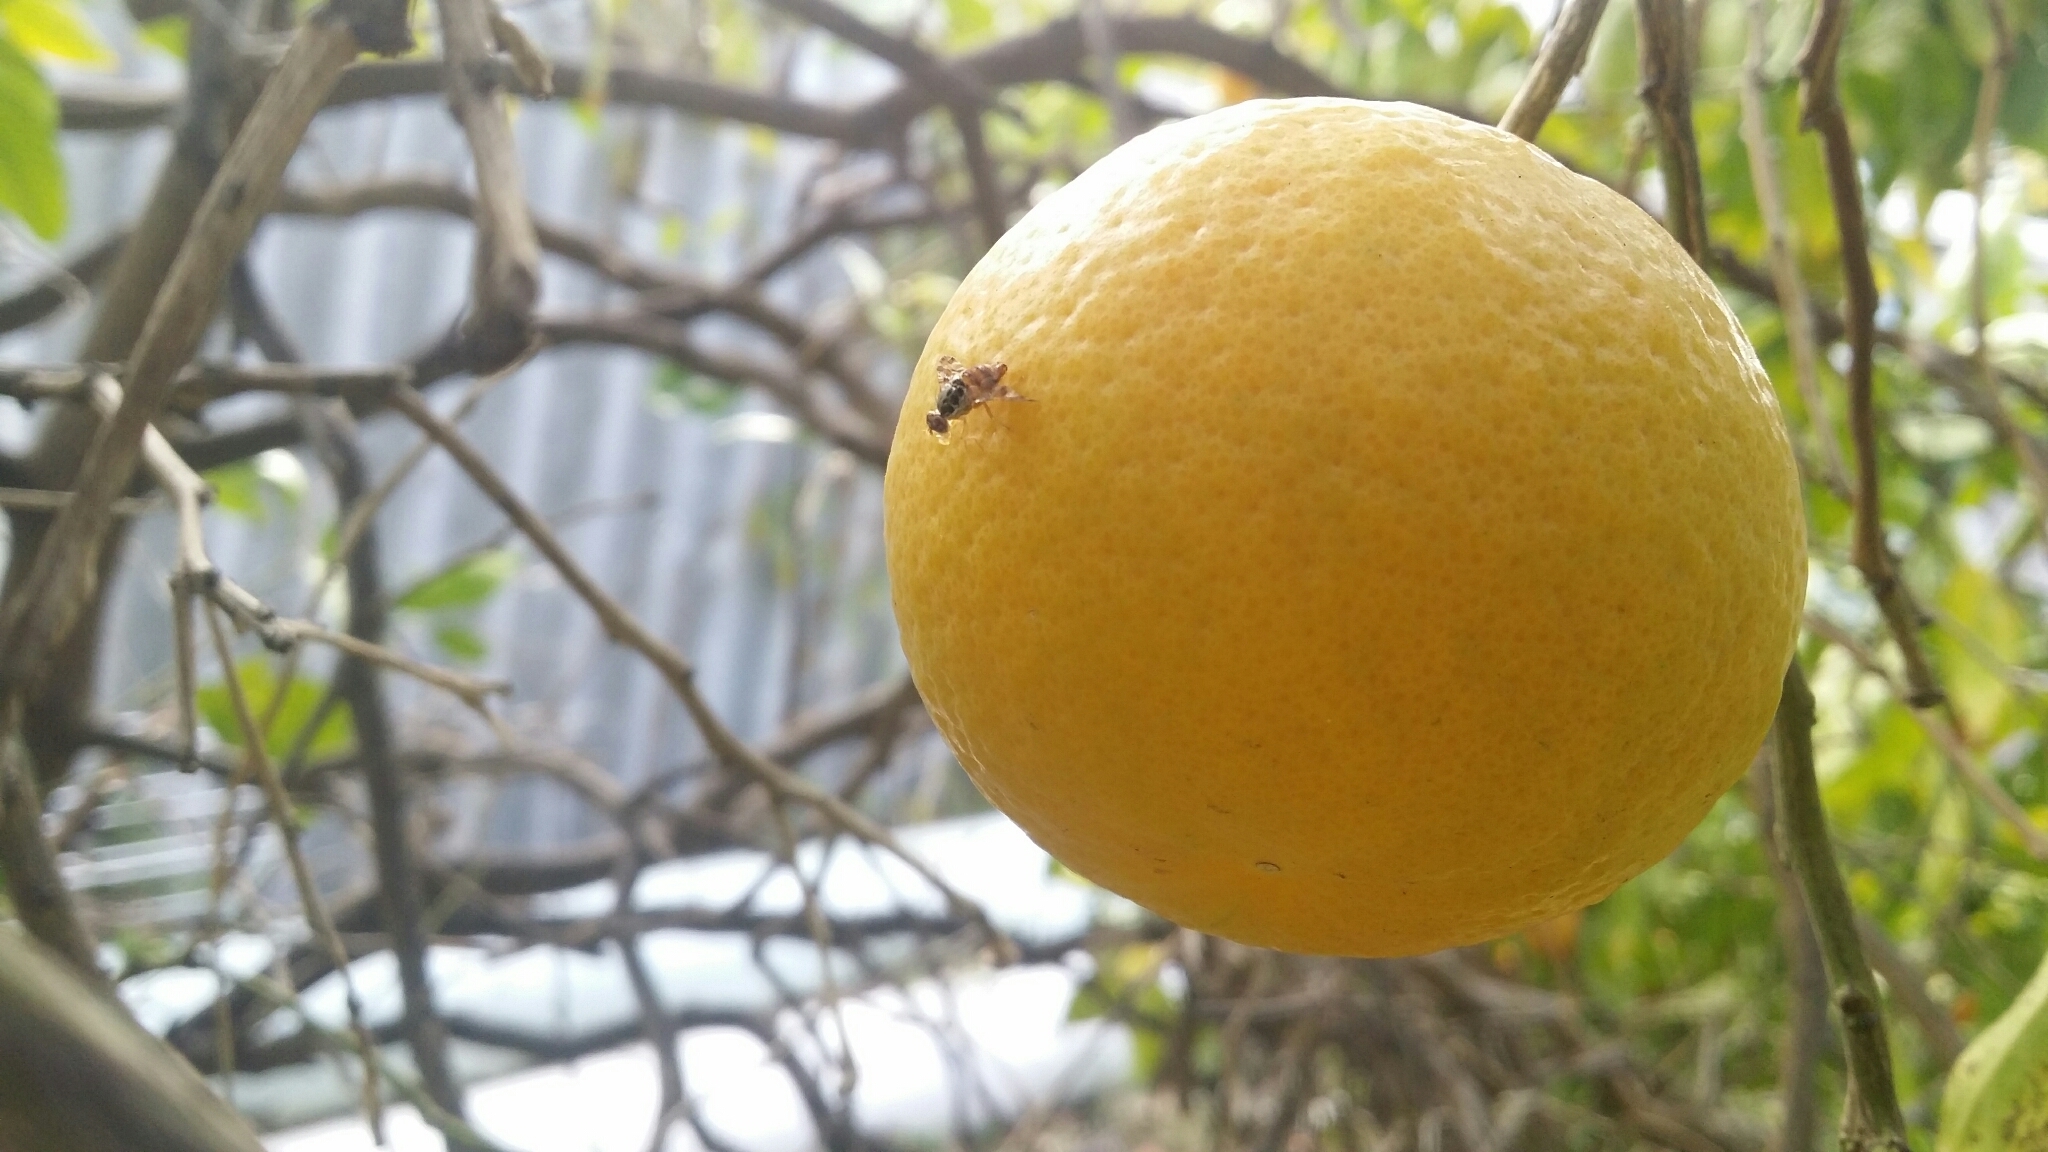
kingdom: Animalia
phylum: Arthropoda
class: Insecta
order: Diptera
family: Tephritidae
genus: Ceratitis
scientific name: Ceratitis capitata
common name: Mediterranean fruit fly
